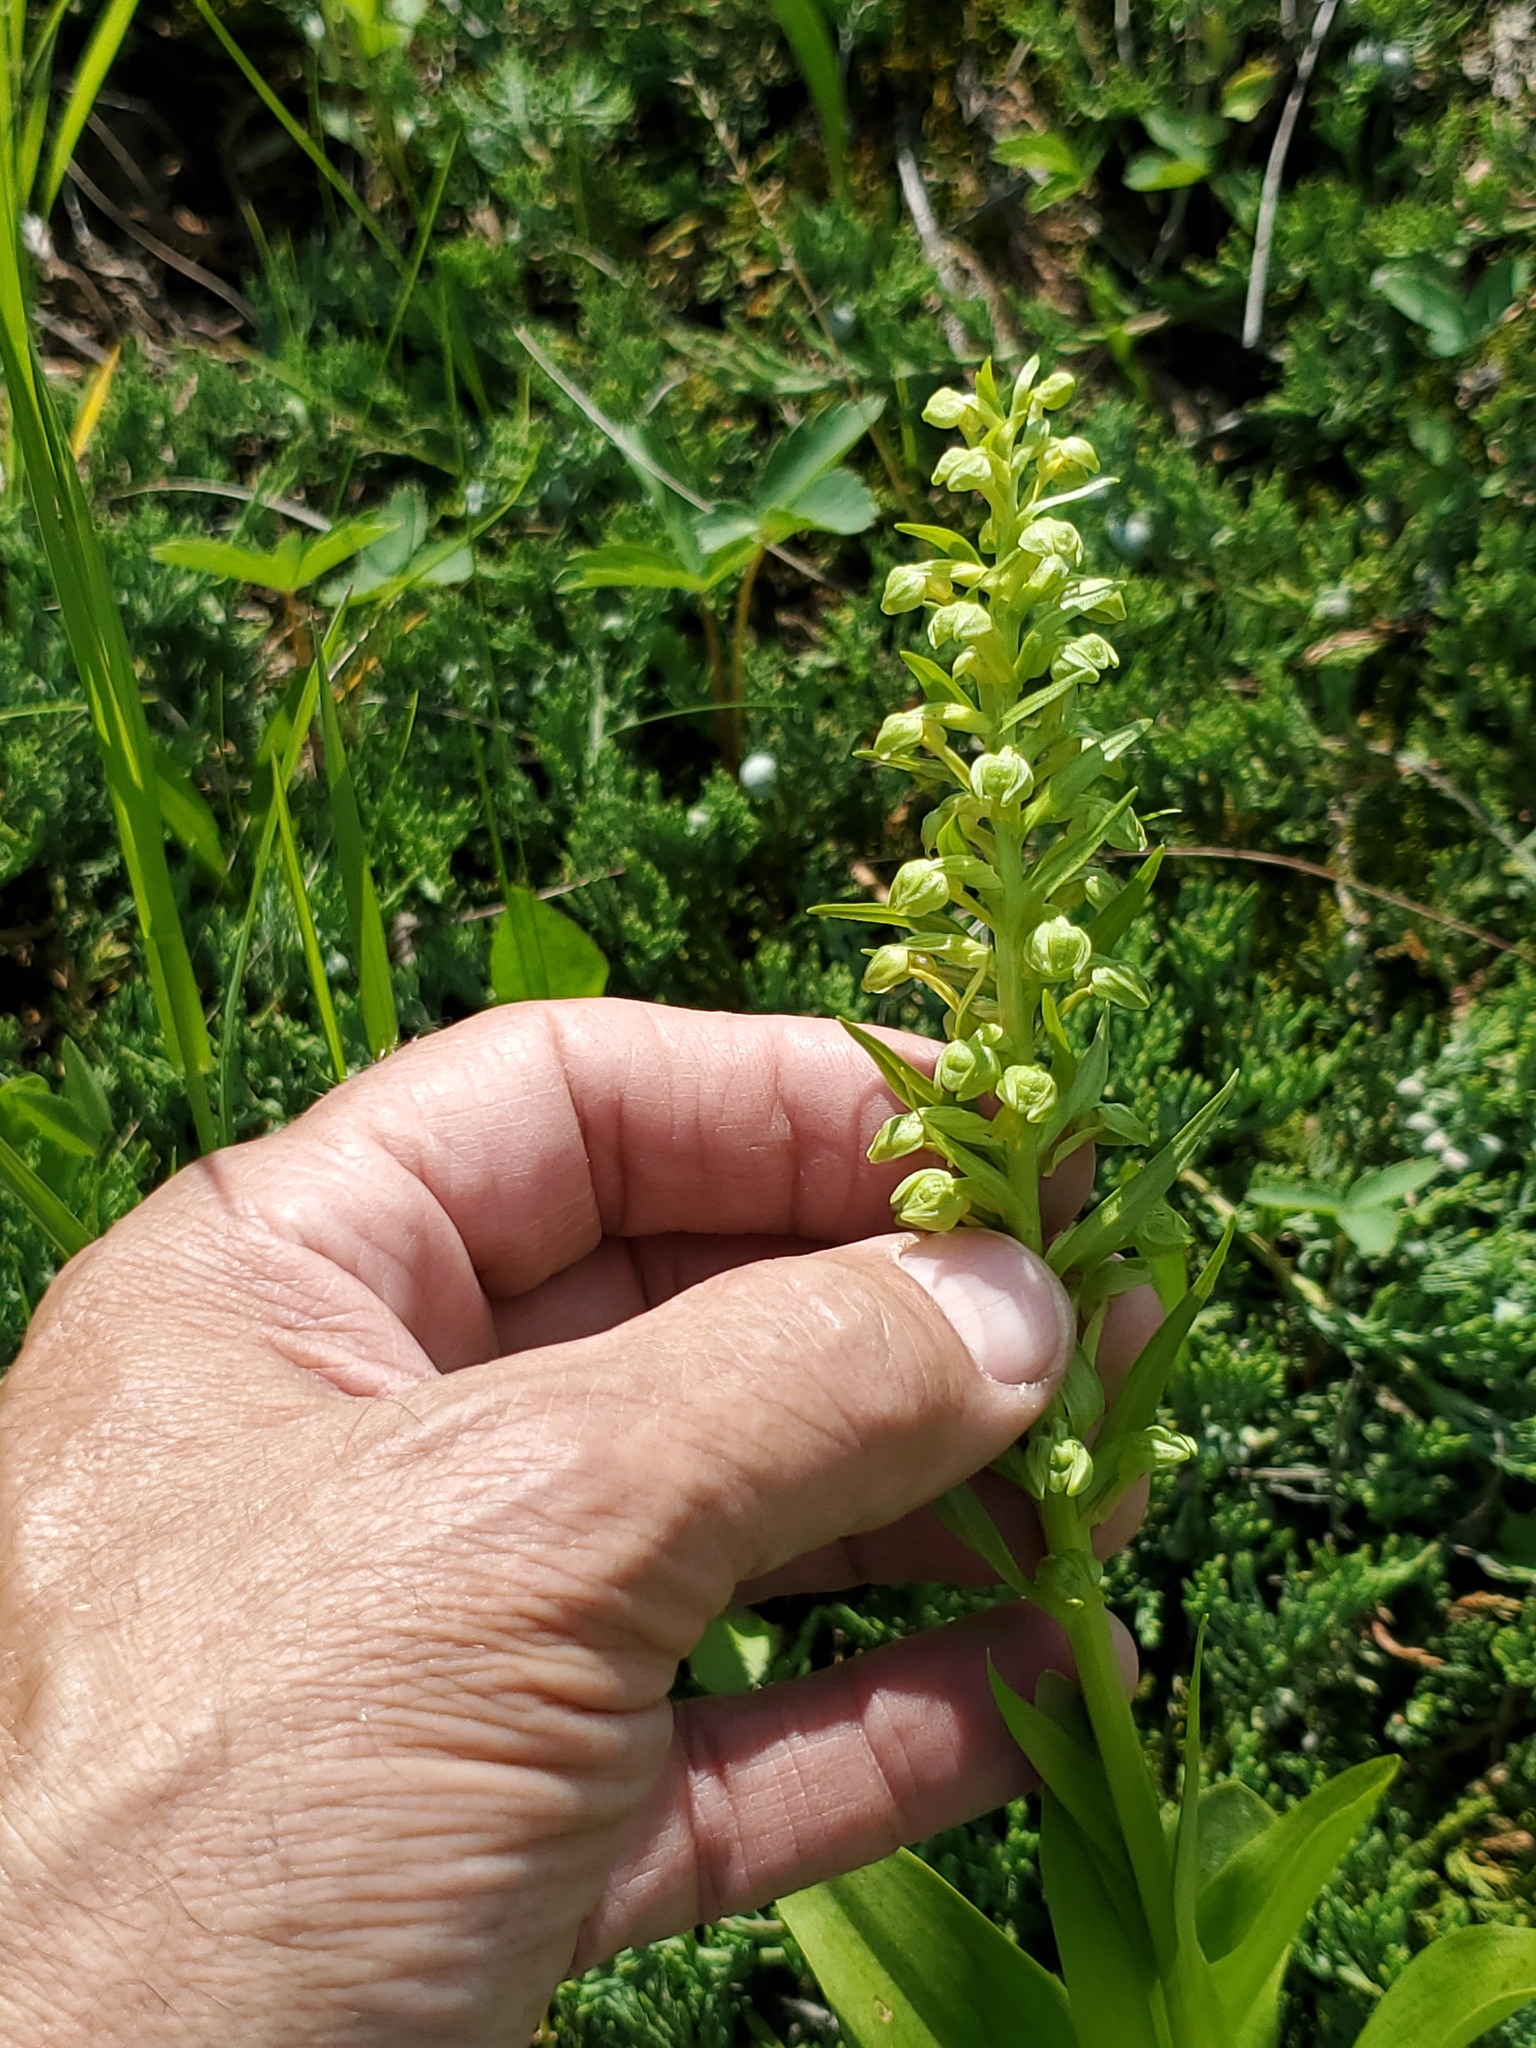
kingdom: Plantae
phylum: Tracheophyta
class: Liliopsida
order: Asparagales
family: Orchidaceae
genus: Dactylorhiza
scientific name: Dactylorhiza viridis
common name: Longbract frog orchid
